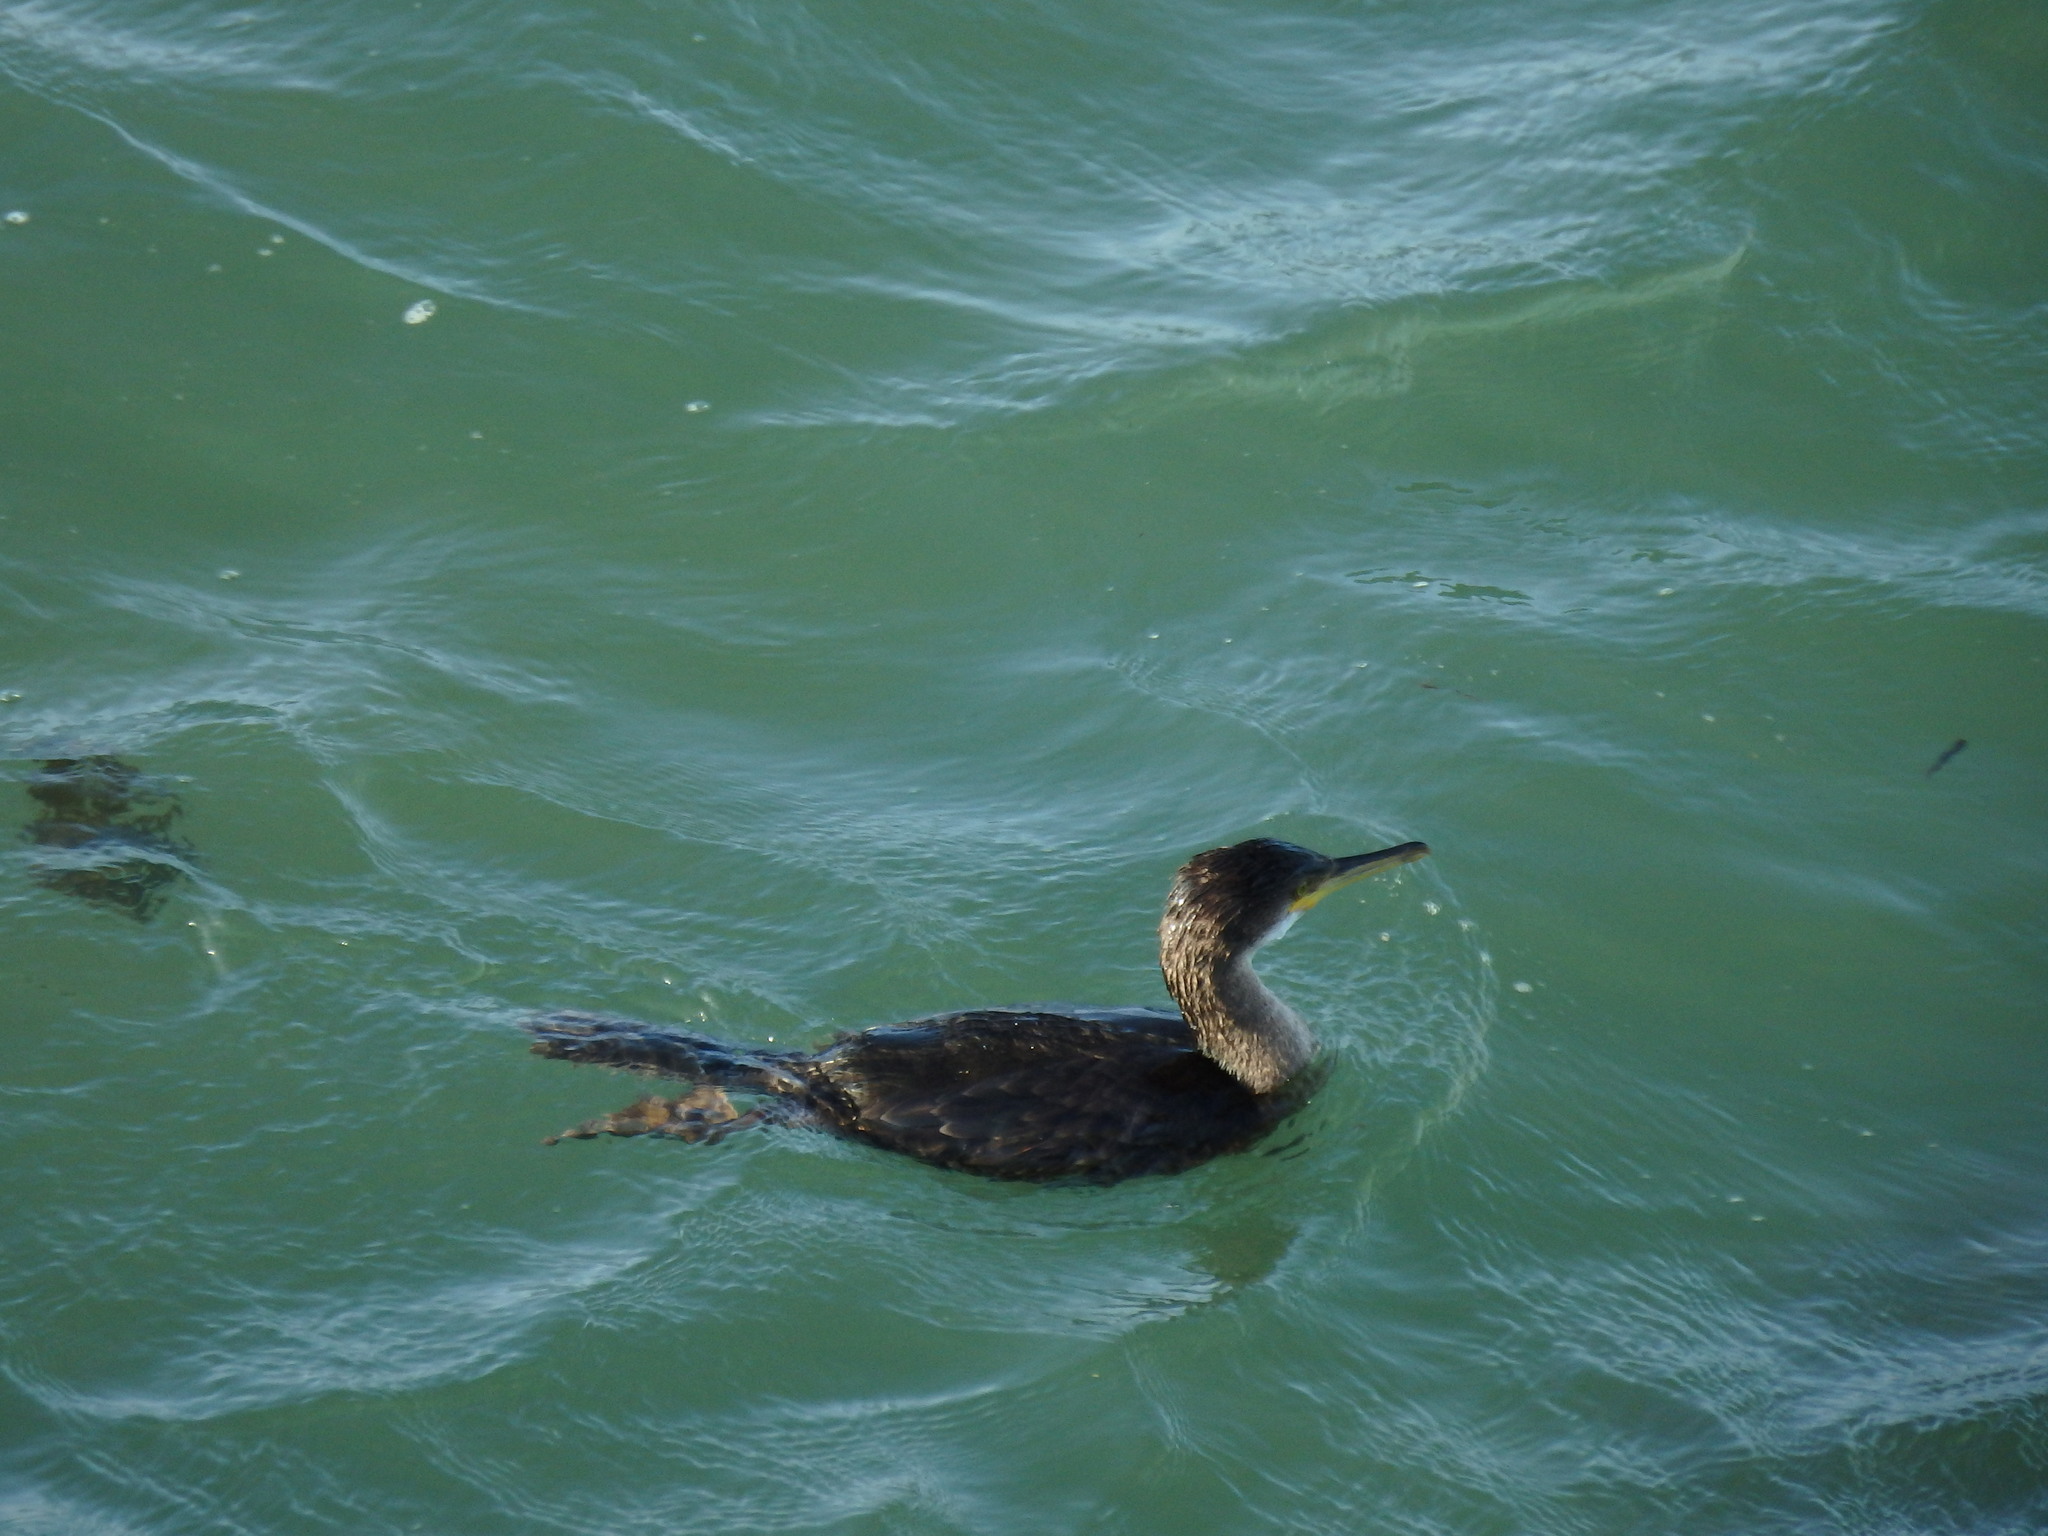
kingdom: Animalia
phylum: Chordata
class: Aves
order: Suliformes
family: Phalacrocoracidae
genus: Phalacrocorax
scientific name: Phalacrocorax aristotelis
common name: European shag
